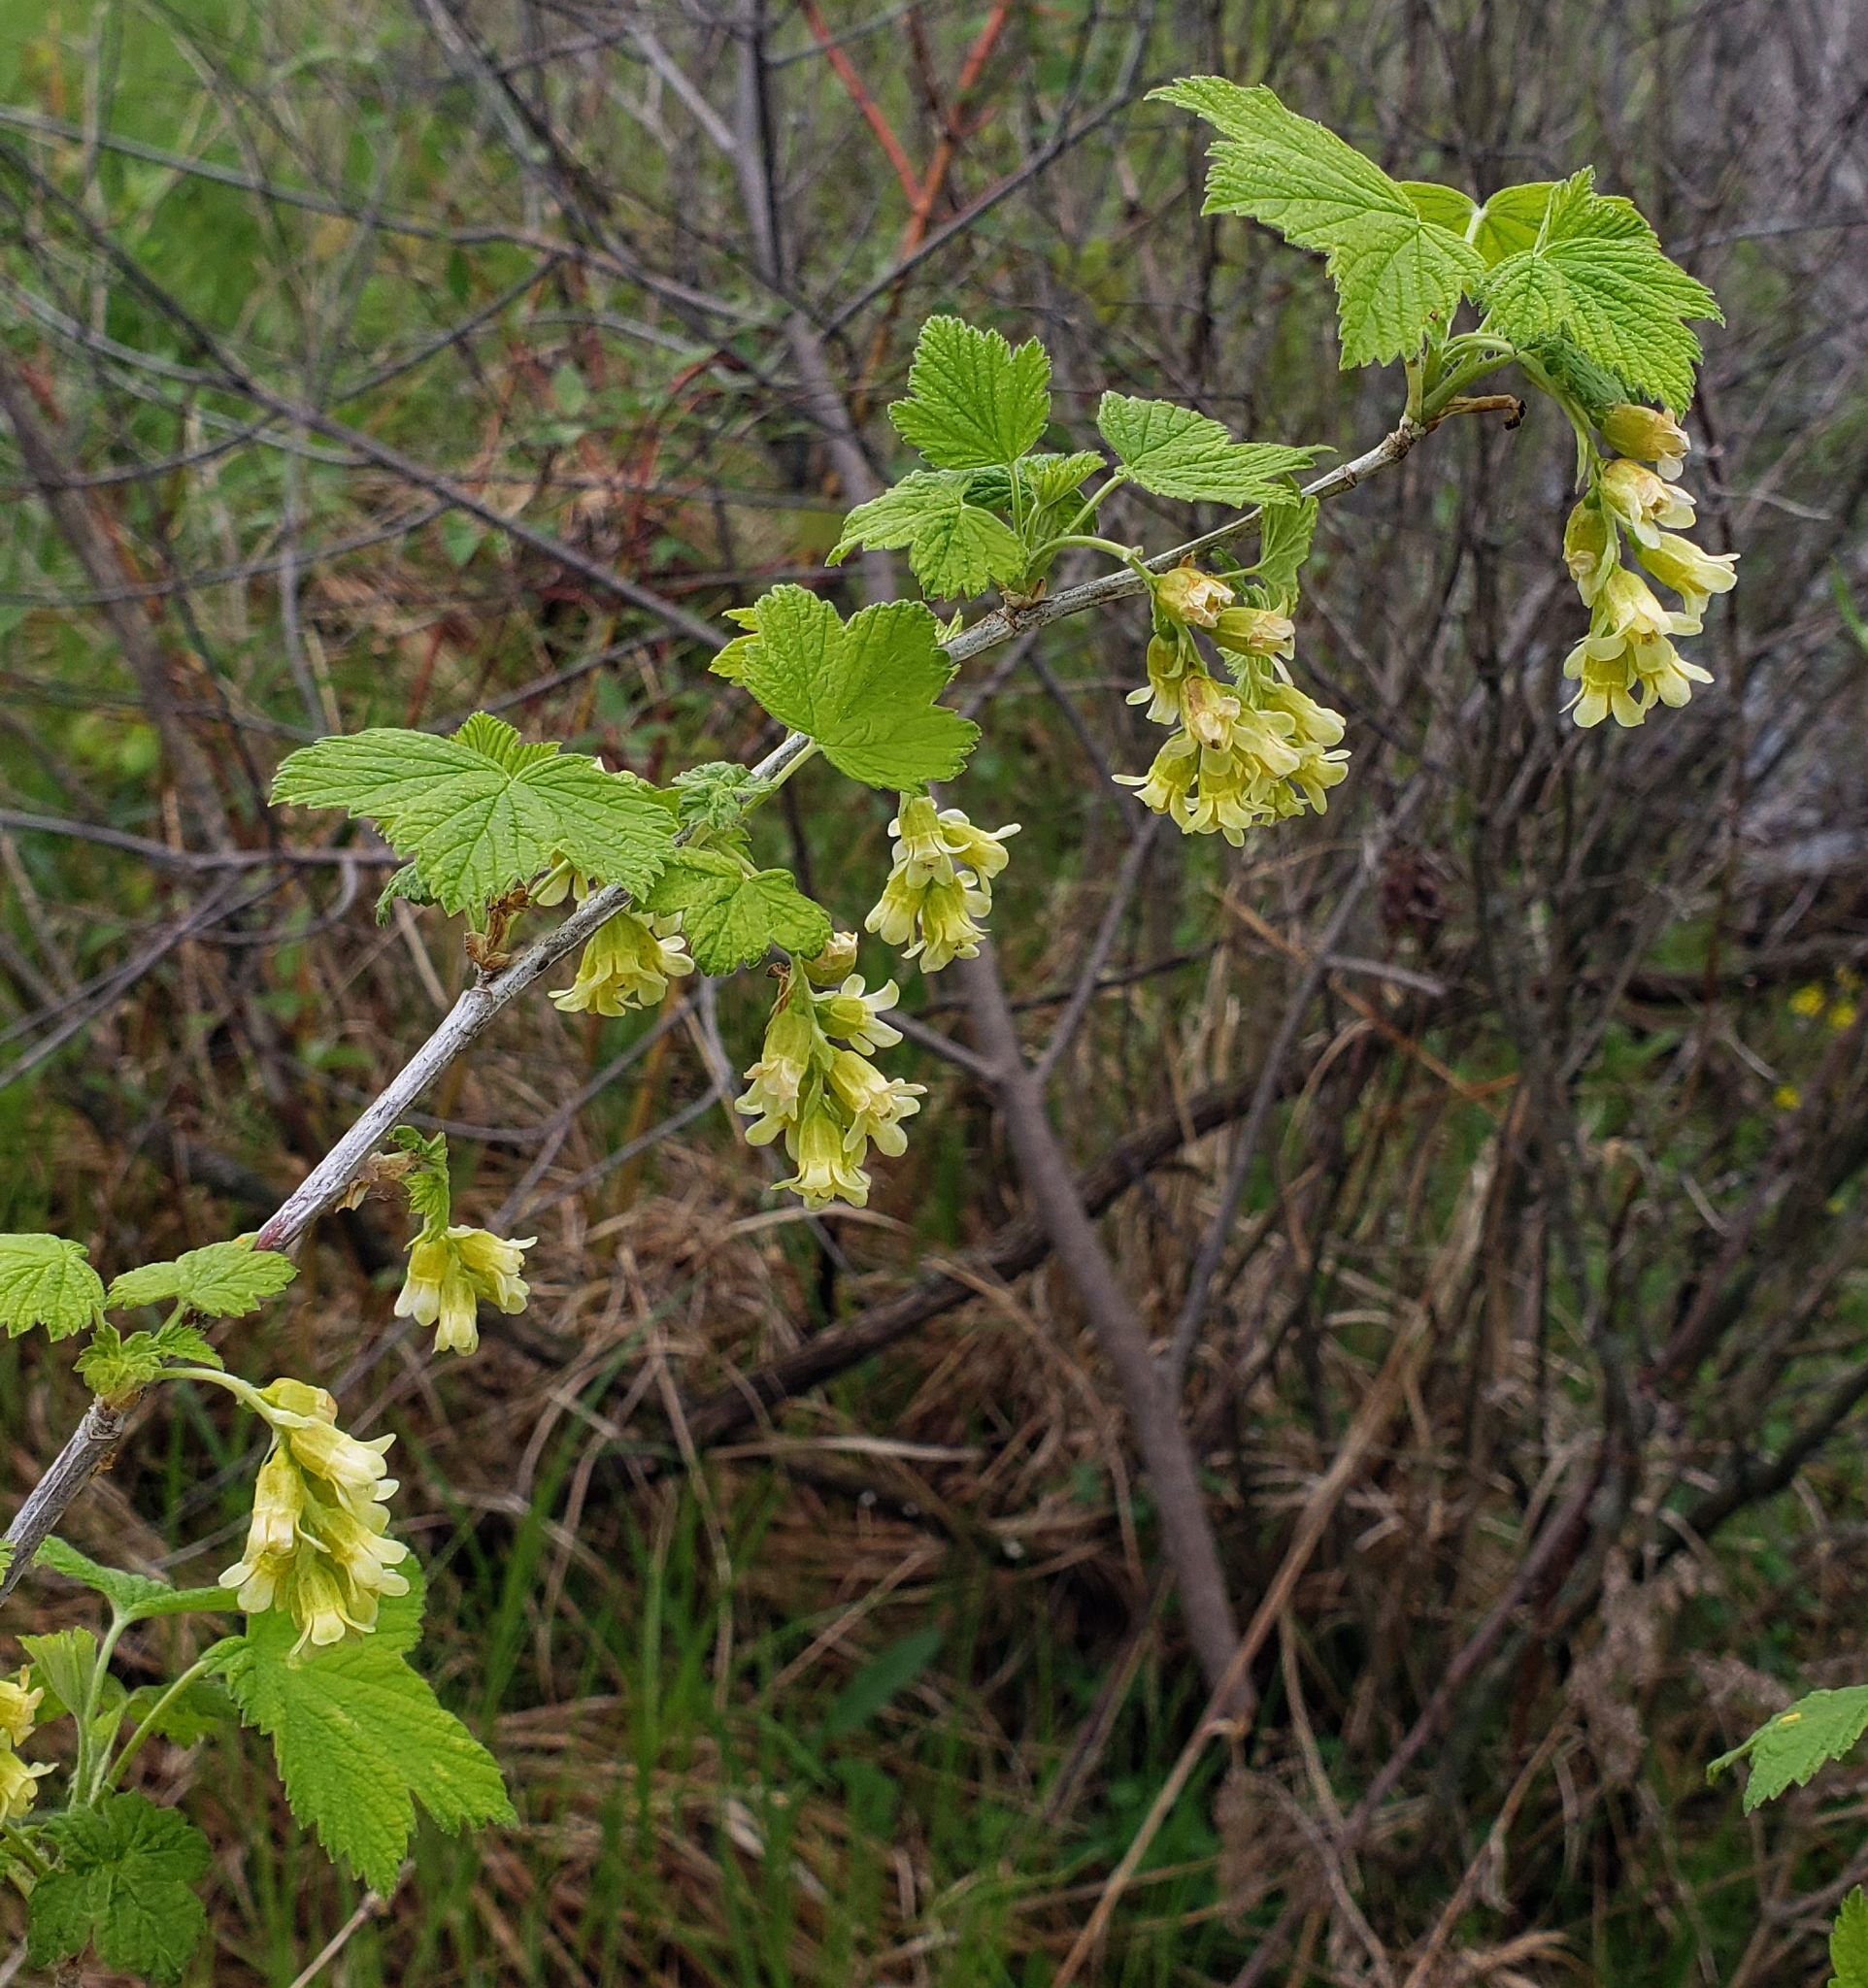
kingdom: Plantae
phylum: Tracheophyta
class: Magnoliopsida
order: Saxifragales
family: Grossulariaceae
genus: Ribes
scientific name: Ribes americanum
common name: American black currant
